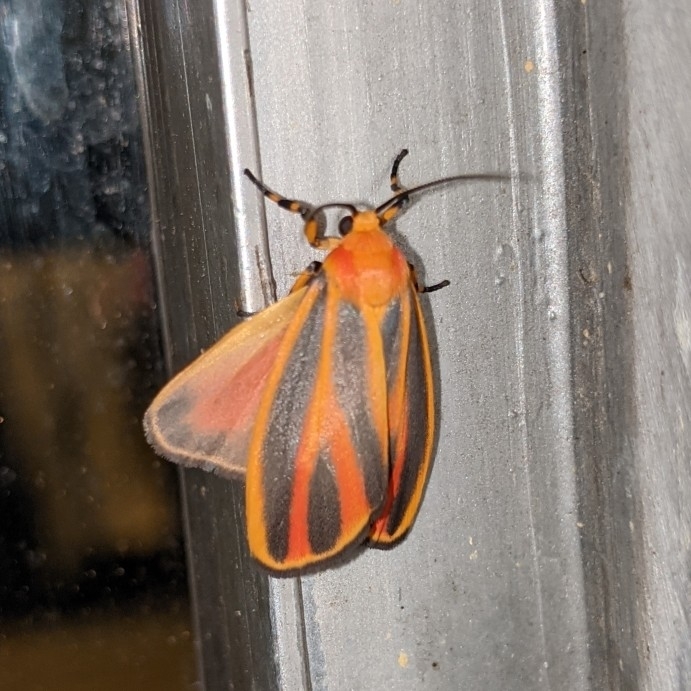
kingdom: Animalia
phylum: Arthropoda
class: Insecta
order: Lepidoptera
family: Erebidae
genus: Hypoprepia
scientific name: Hypoprepia fucosa
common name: Painted lichen moth
